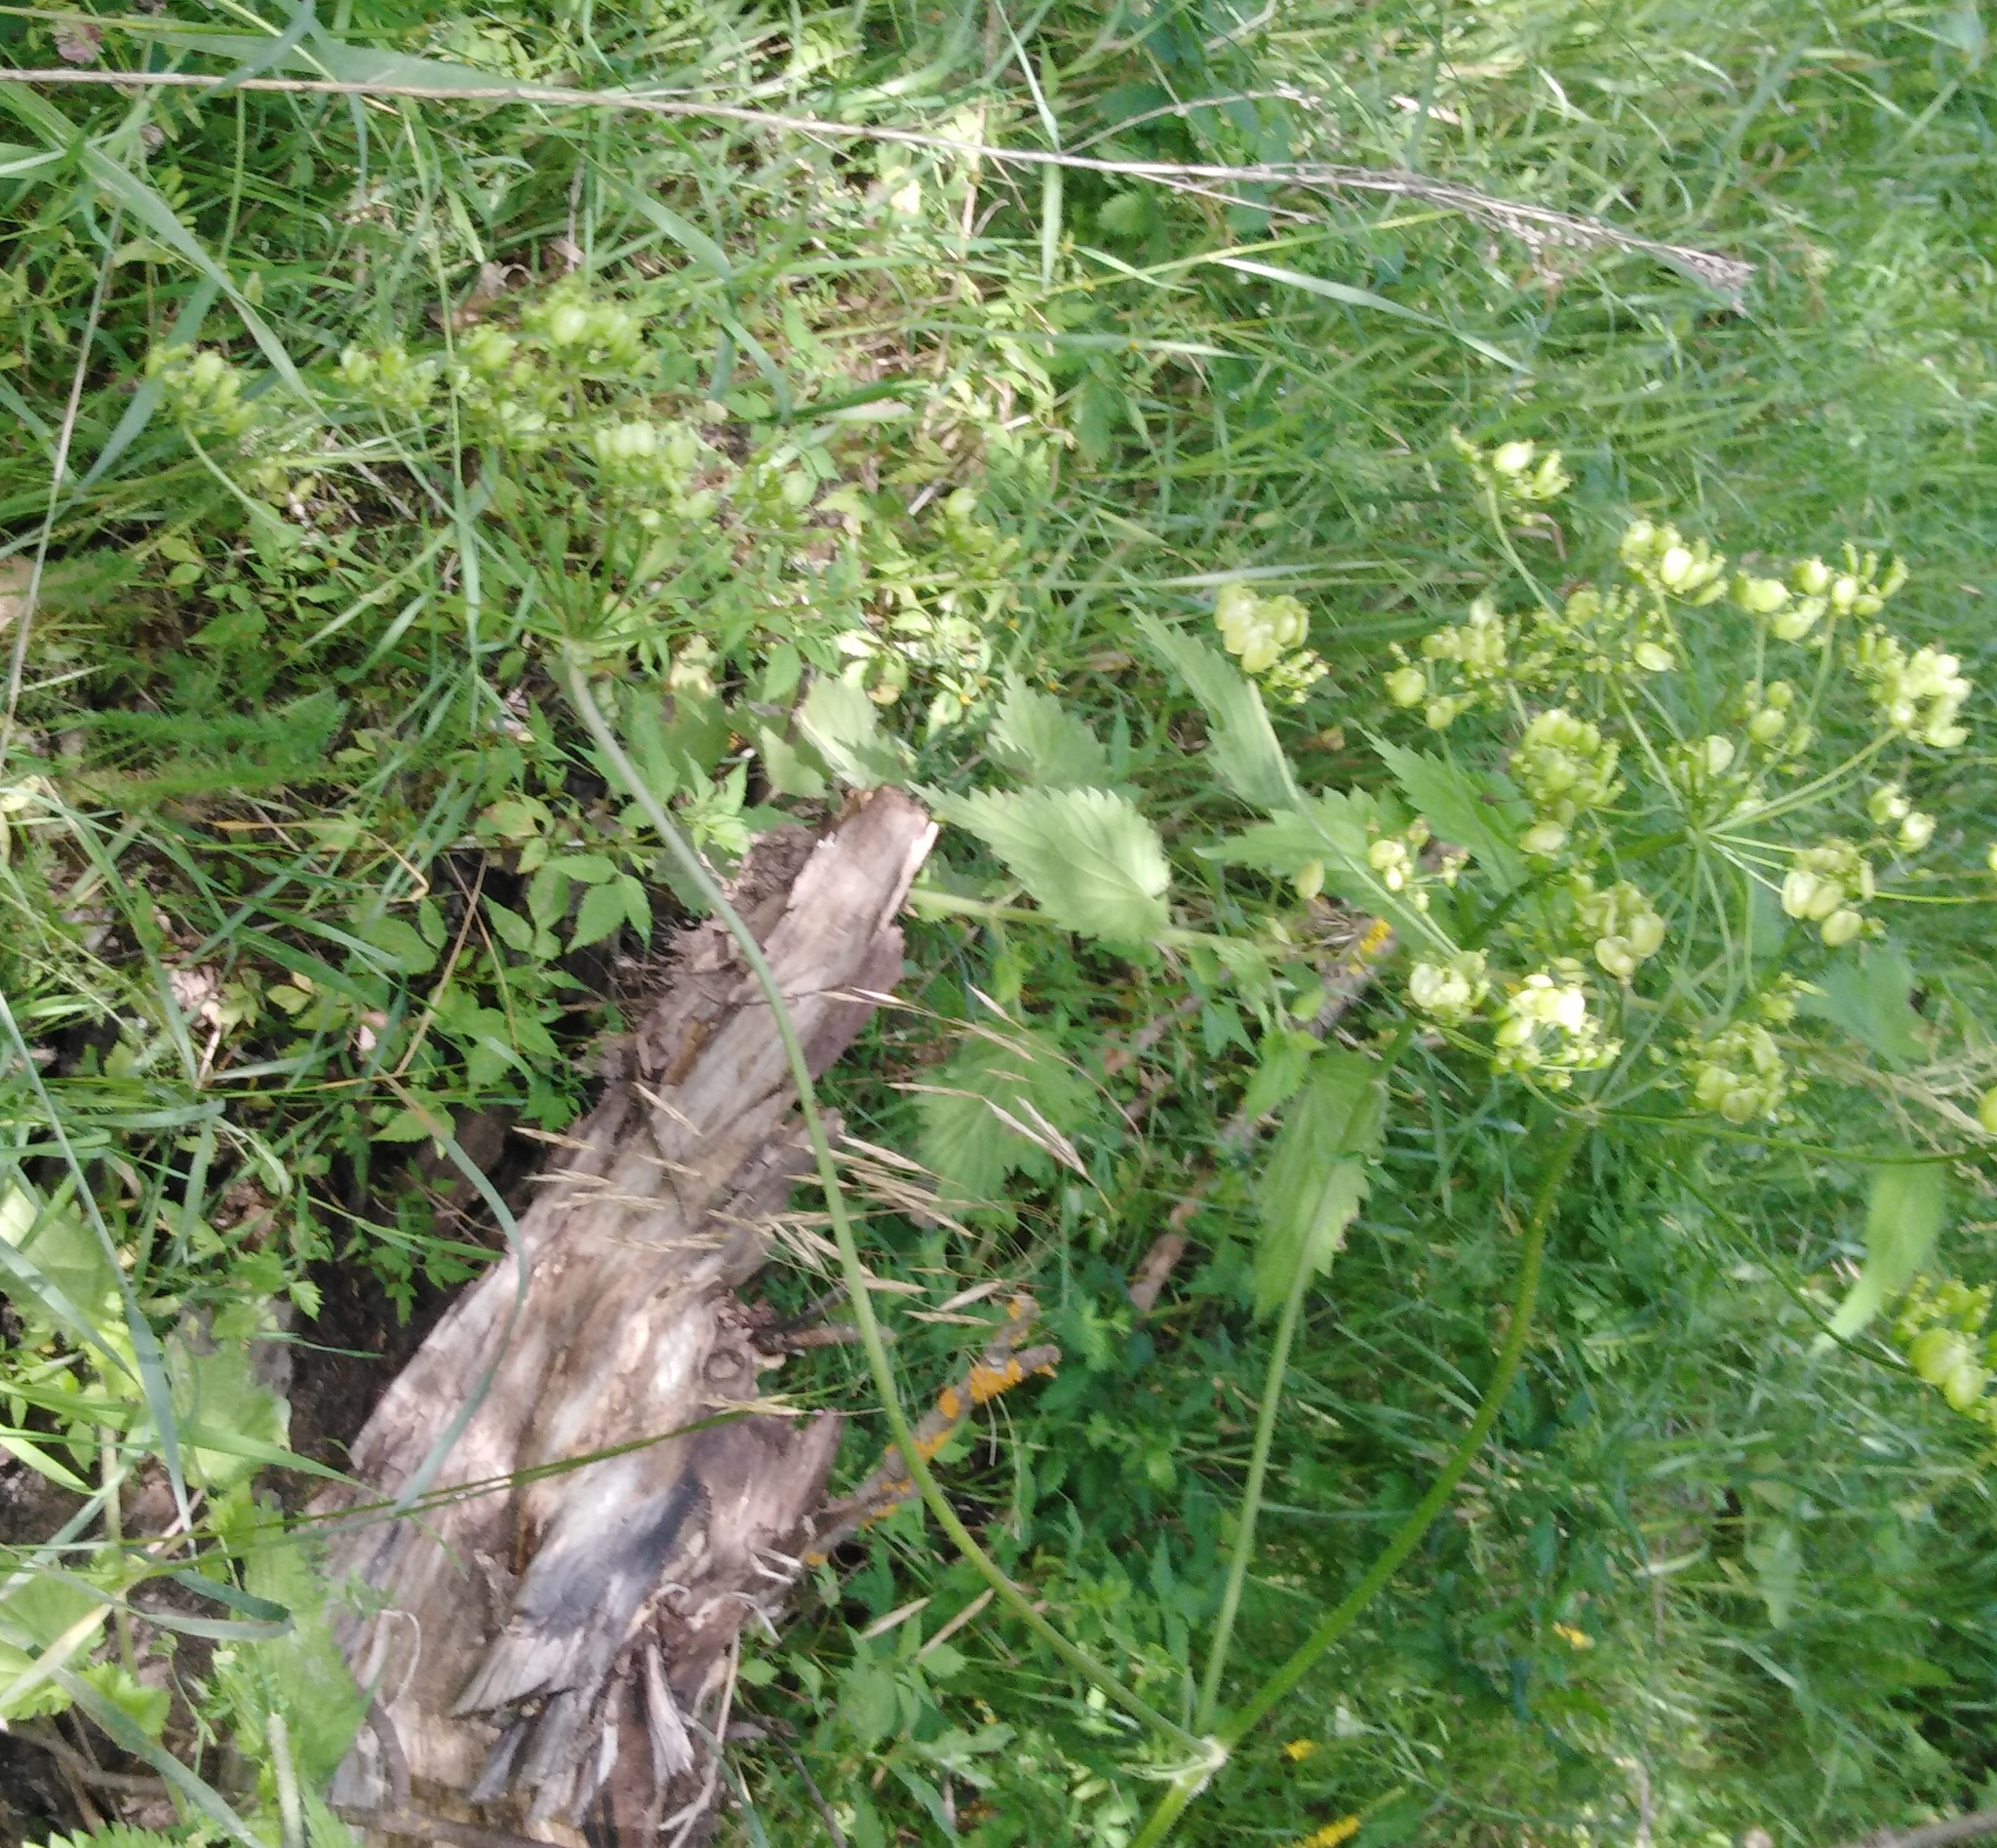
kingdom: Plantae
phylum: Tracheophyta
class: Magnoliopsida
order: Apiales
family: Apiaceae
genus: Heracleum
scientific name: Heracleum sphondylium
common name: Hogweed
